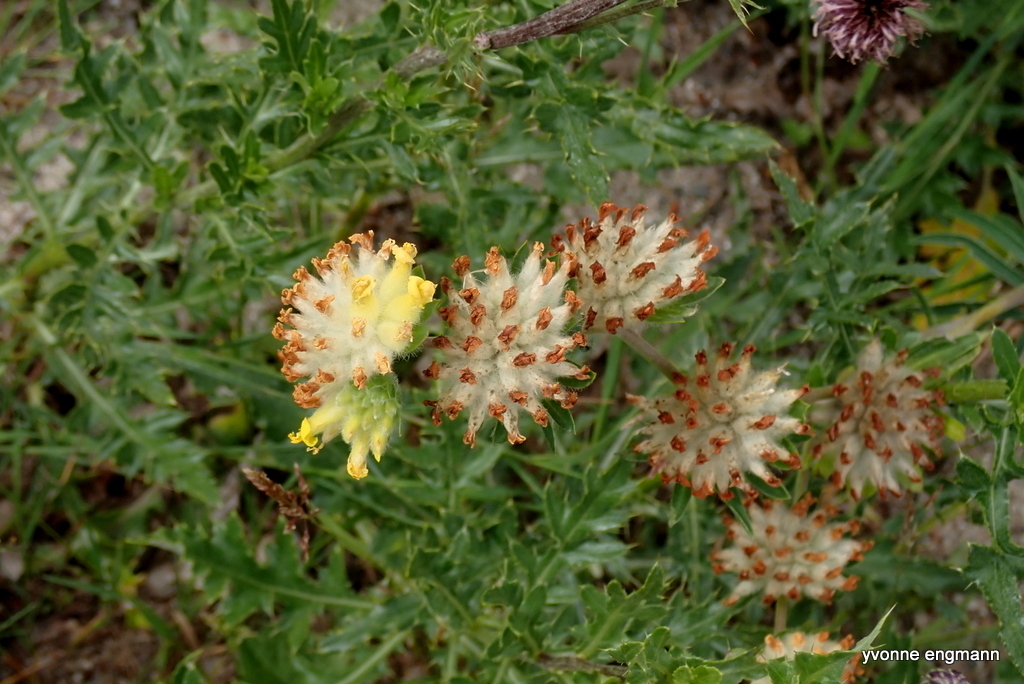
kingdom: Plantae
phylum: Tracheophyta
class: Magnoliopsida
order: Fabales
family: Fabaceae
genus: Anthyllis
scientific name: Anthyllis vulneraria
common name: Kidney vetch
